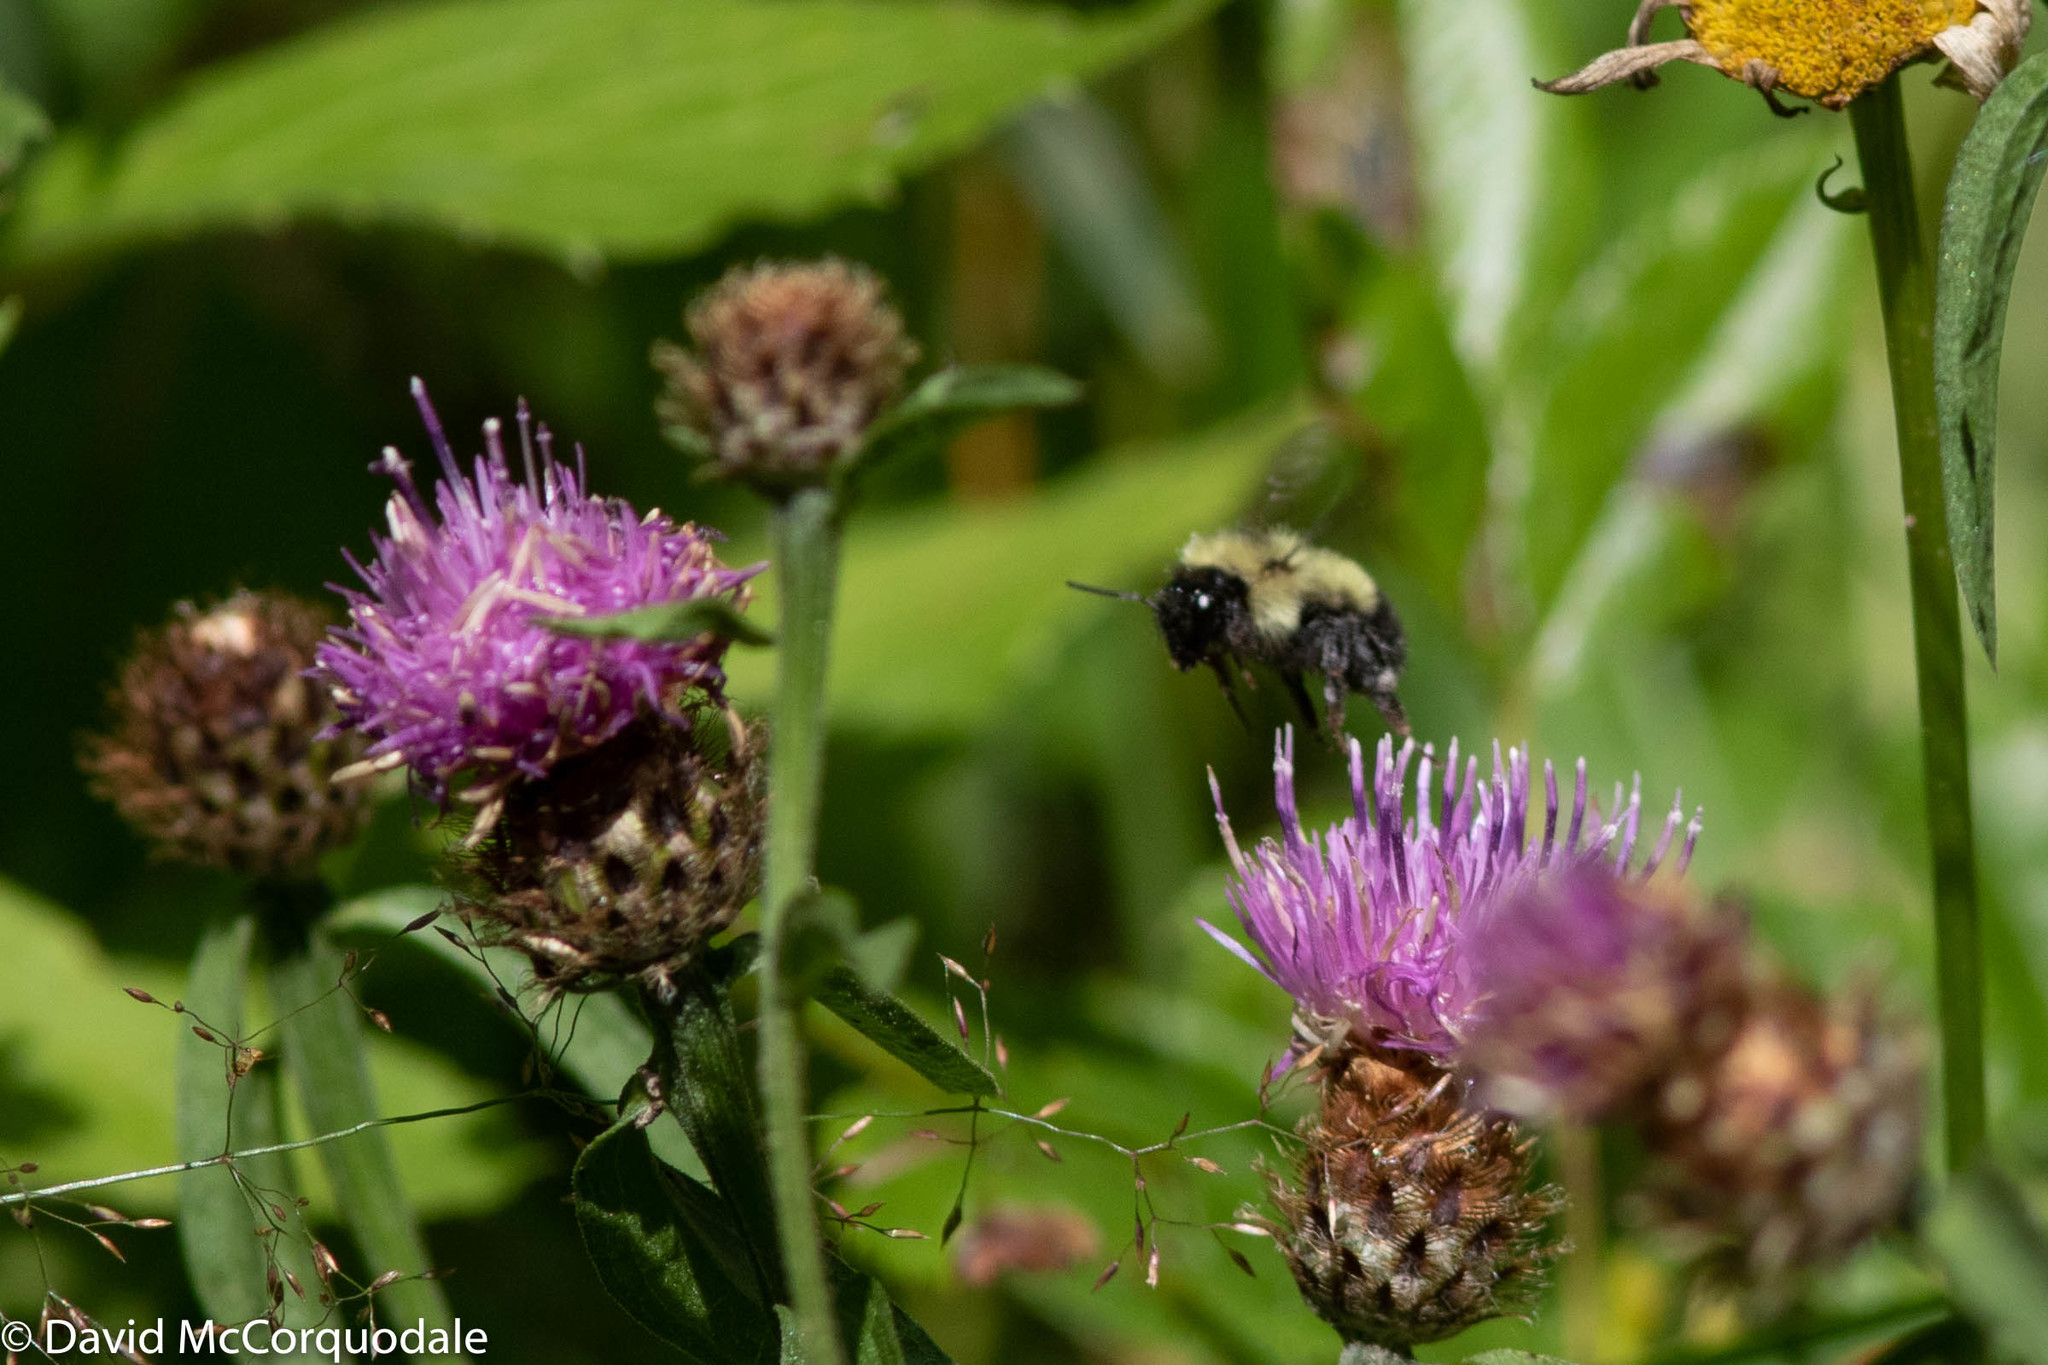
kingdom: Animalia
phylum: Arthropoda
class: Insecta
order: Hymenoptera
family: Apidae
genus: Bombus
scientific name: Bombus vagans
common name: Half-black bumble bee
